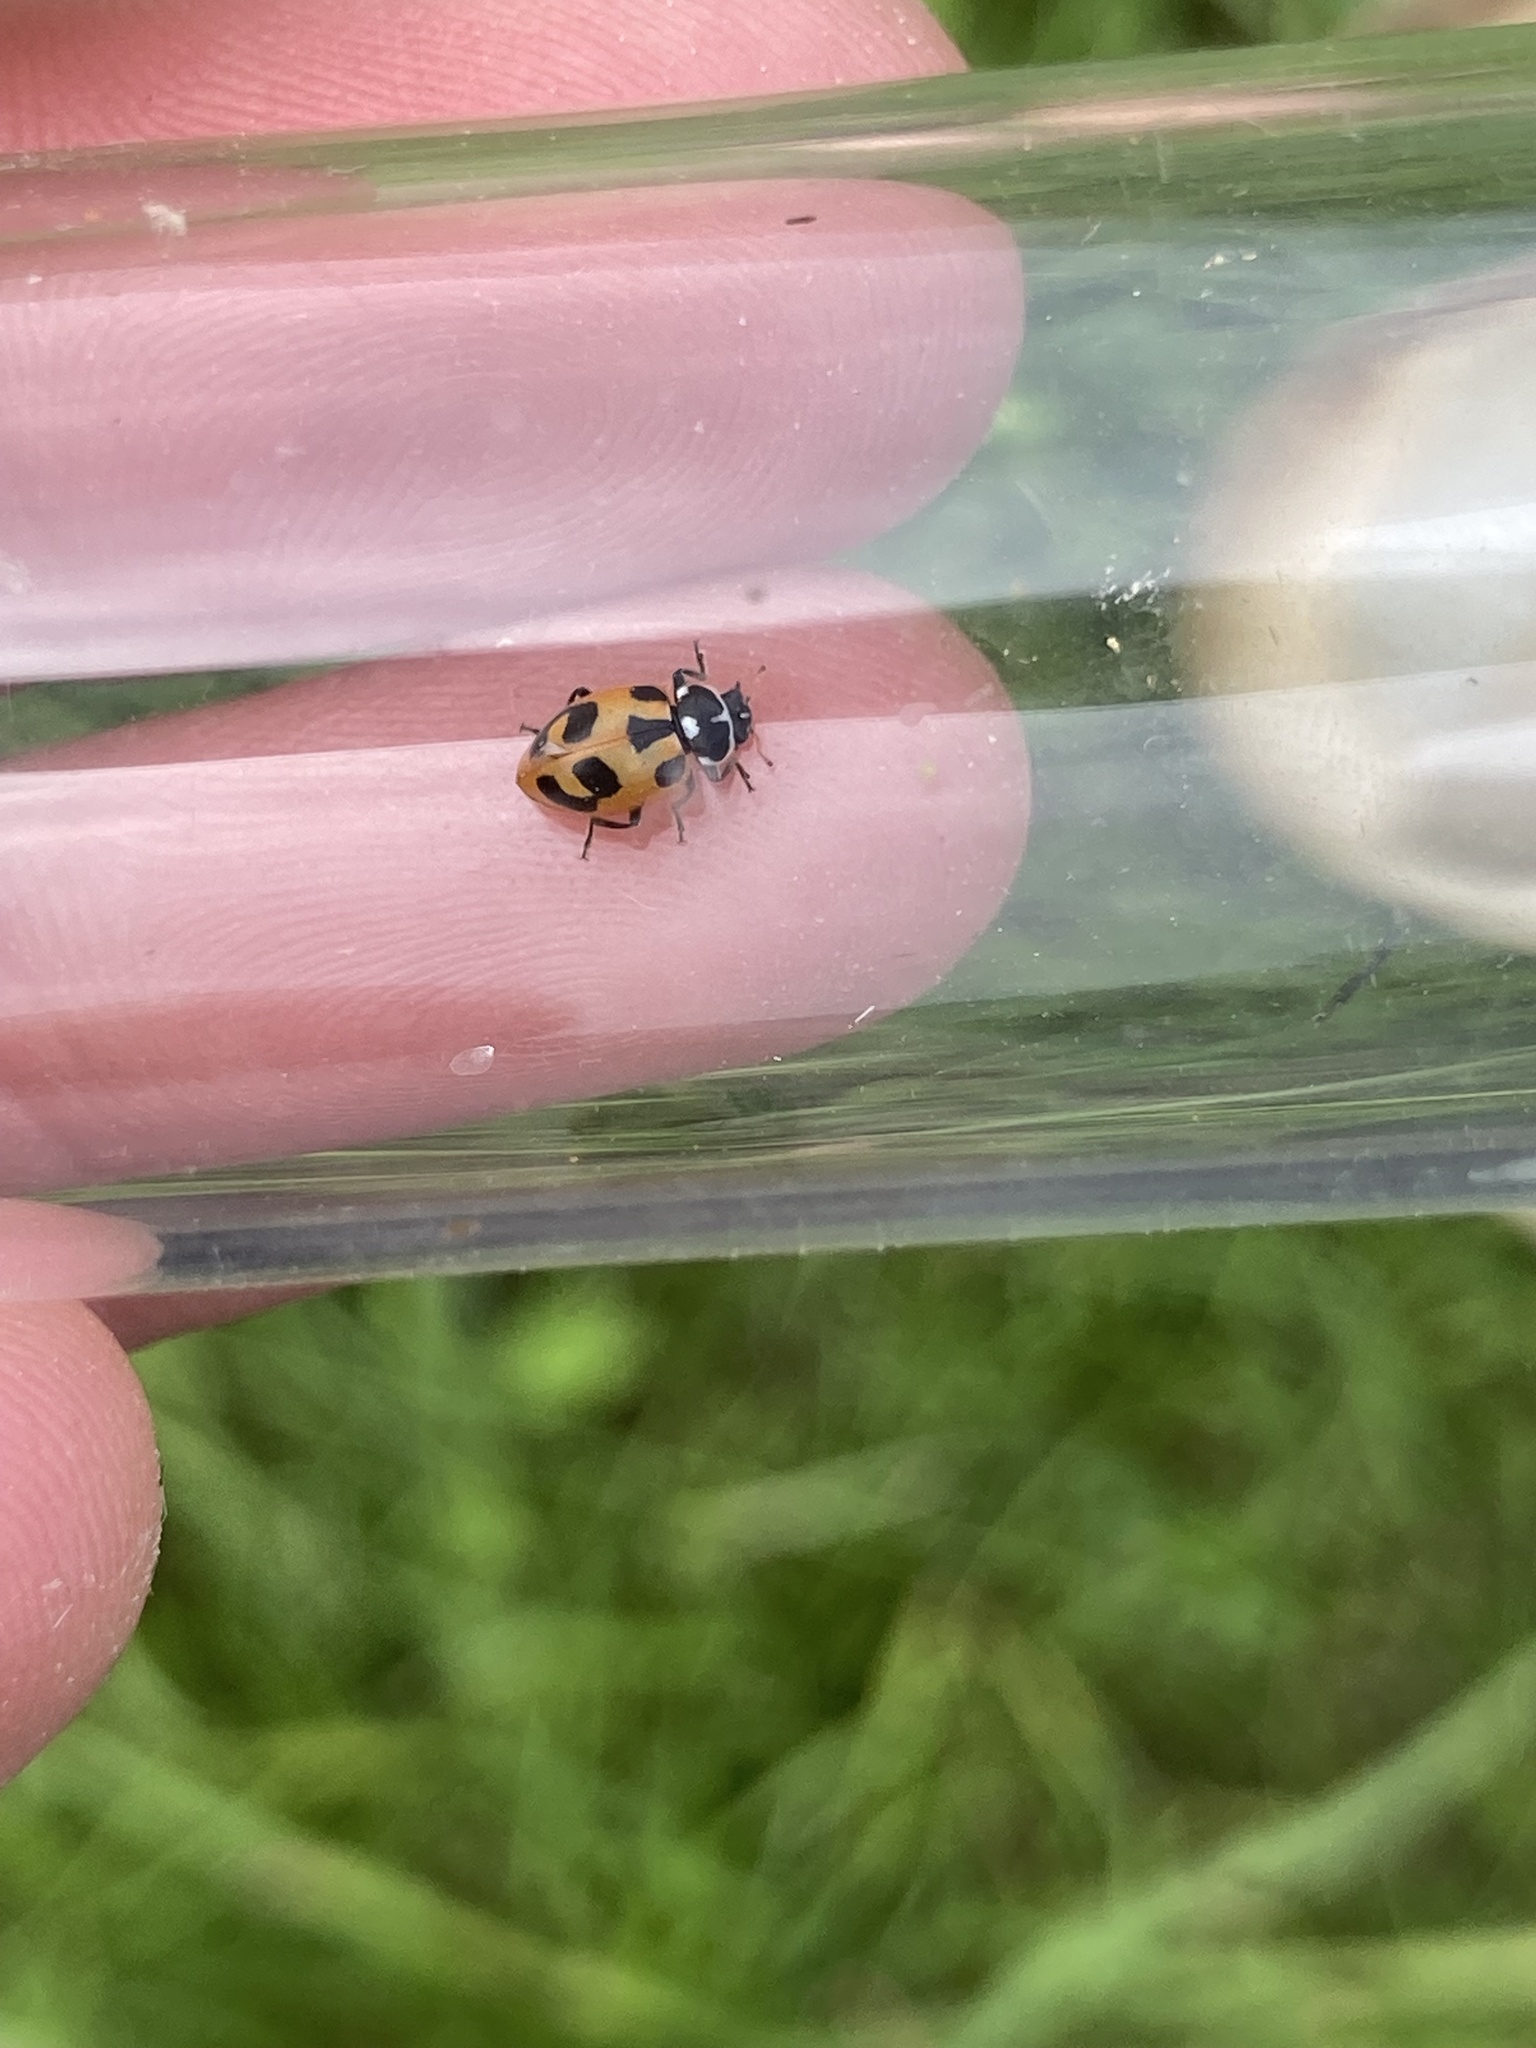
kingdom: Animalia
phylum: Arthropoda
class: Insecta
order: Coleoptera
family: Coccinellidae
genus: Hippodamia
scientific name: Hippodamia parenthesis
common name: Parenthesis lady beetle
